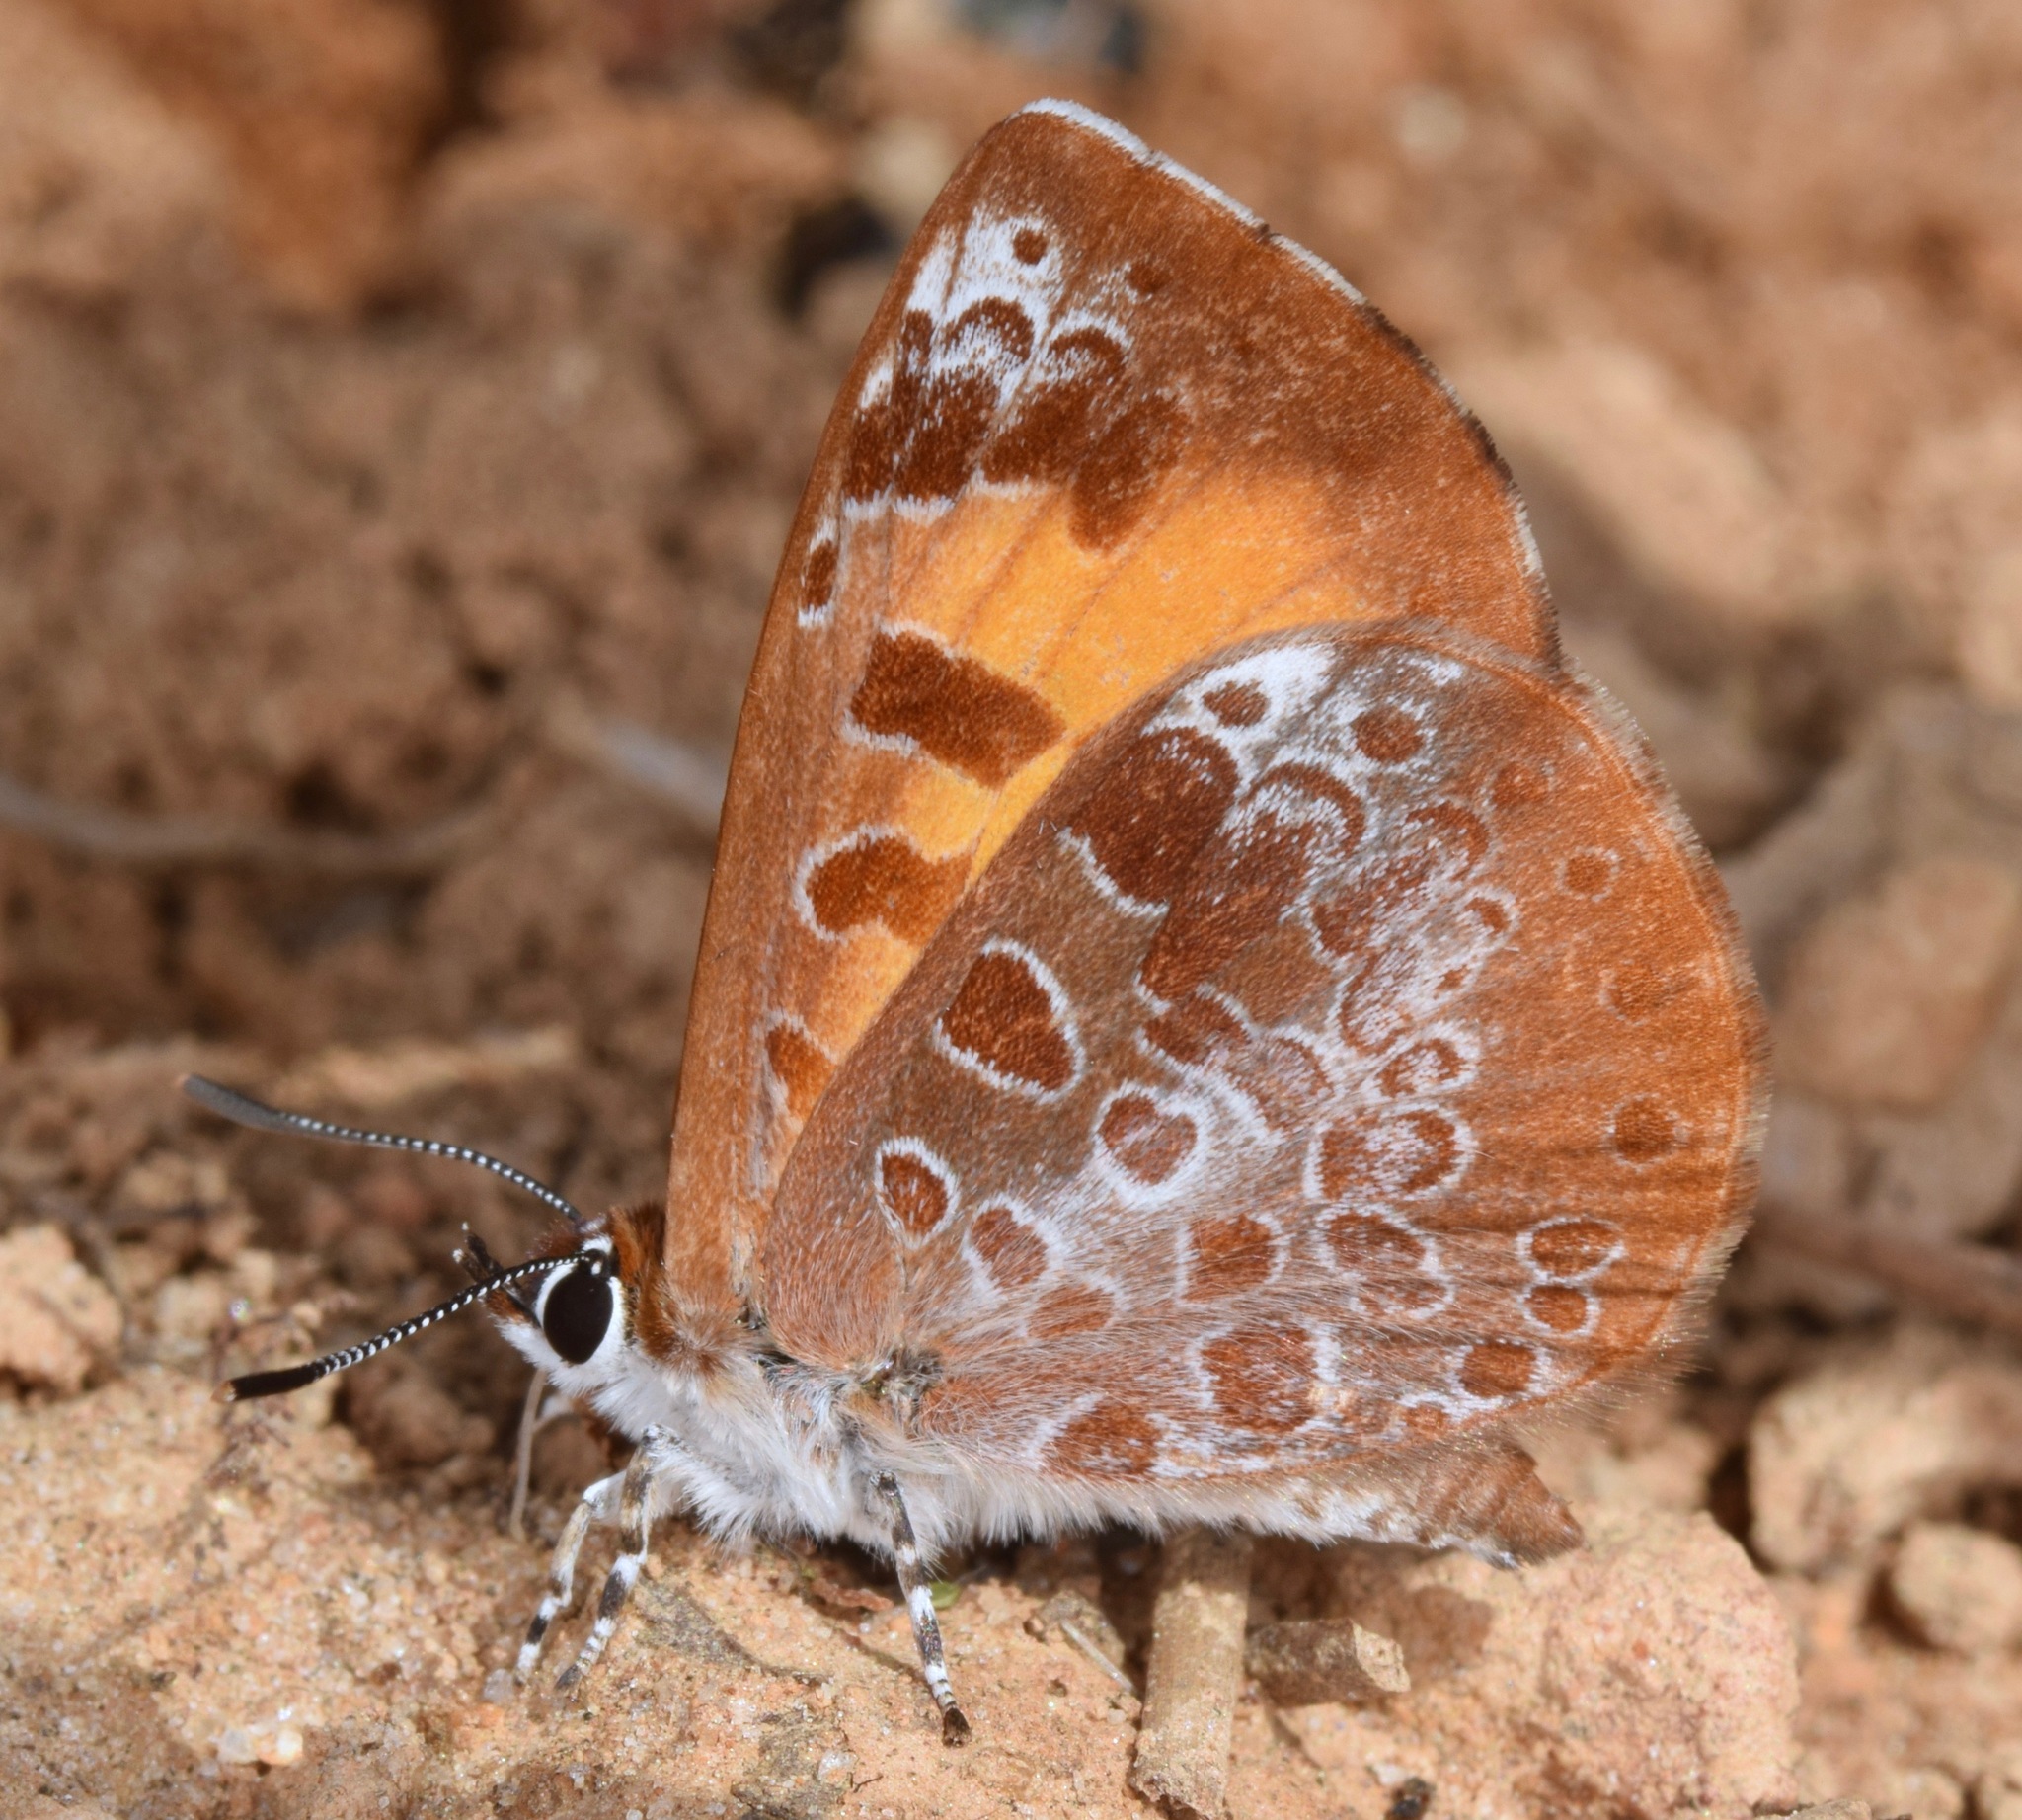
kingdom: Animalia
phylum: Arthropoda
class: Insecta
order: Lepidoptera
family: Lycaenidae
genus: Feniseca
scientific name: Feniseca tarquinius
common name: Harvester
